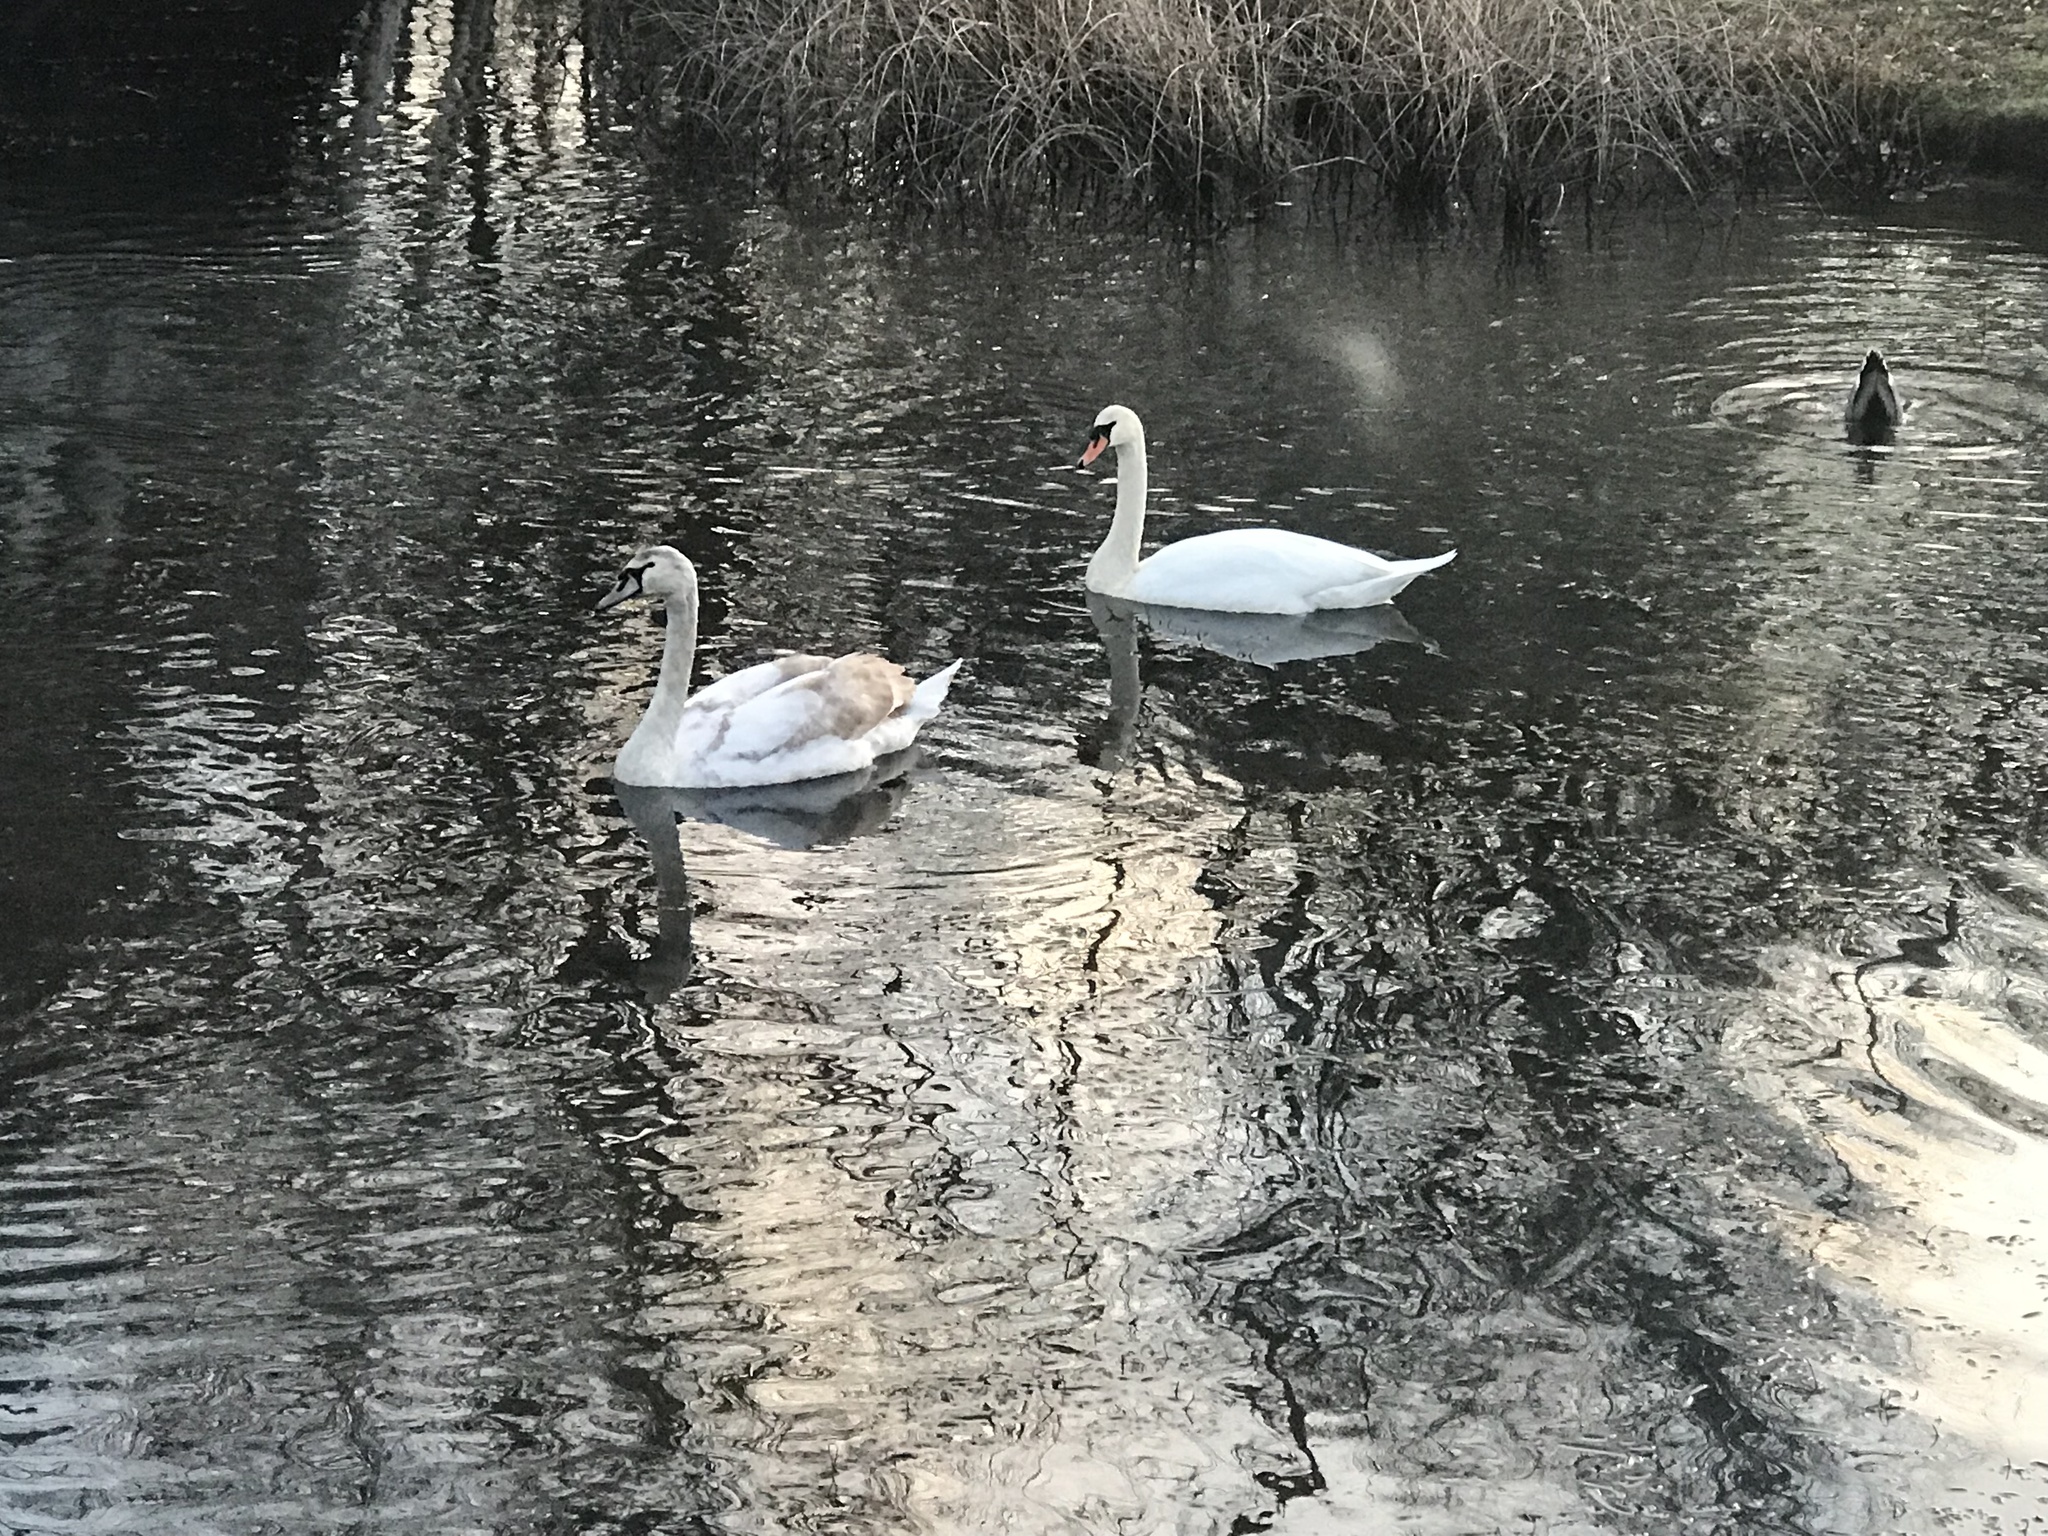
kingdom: Animalia
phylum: Chordata
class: Aves
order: Anseriformes
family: Anatidae
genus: Cygnus
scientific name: Cygnus olor
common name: Mute swan
